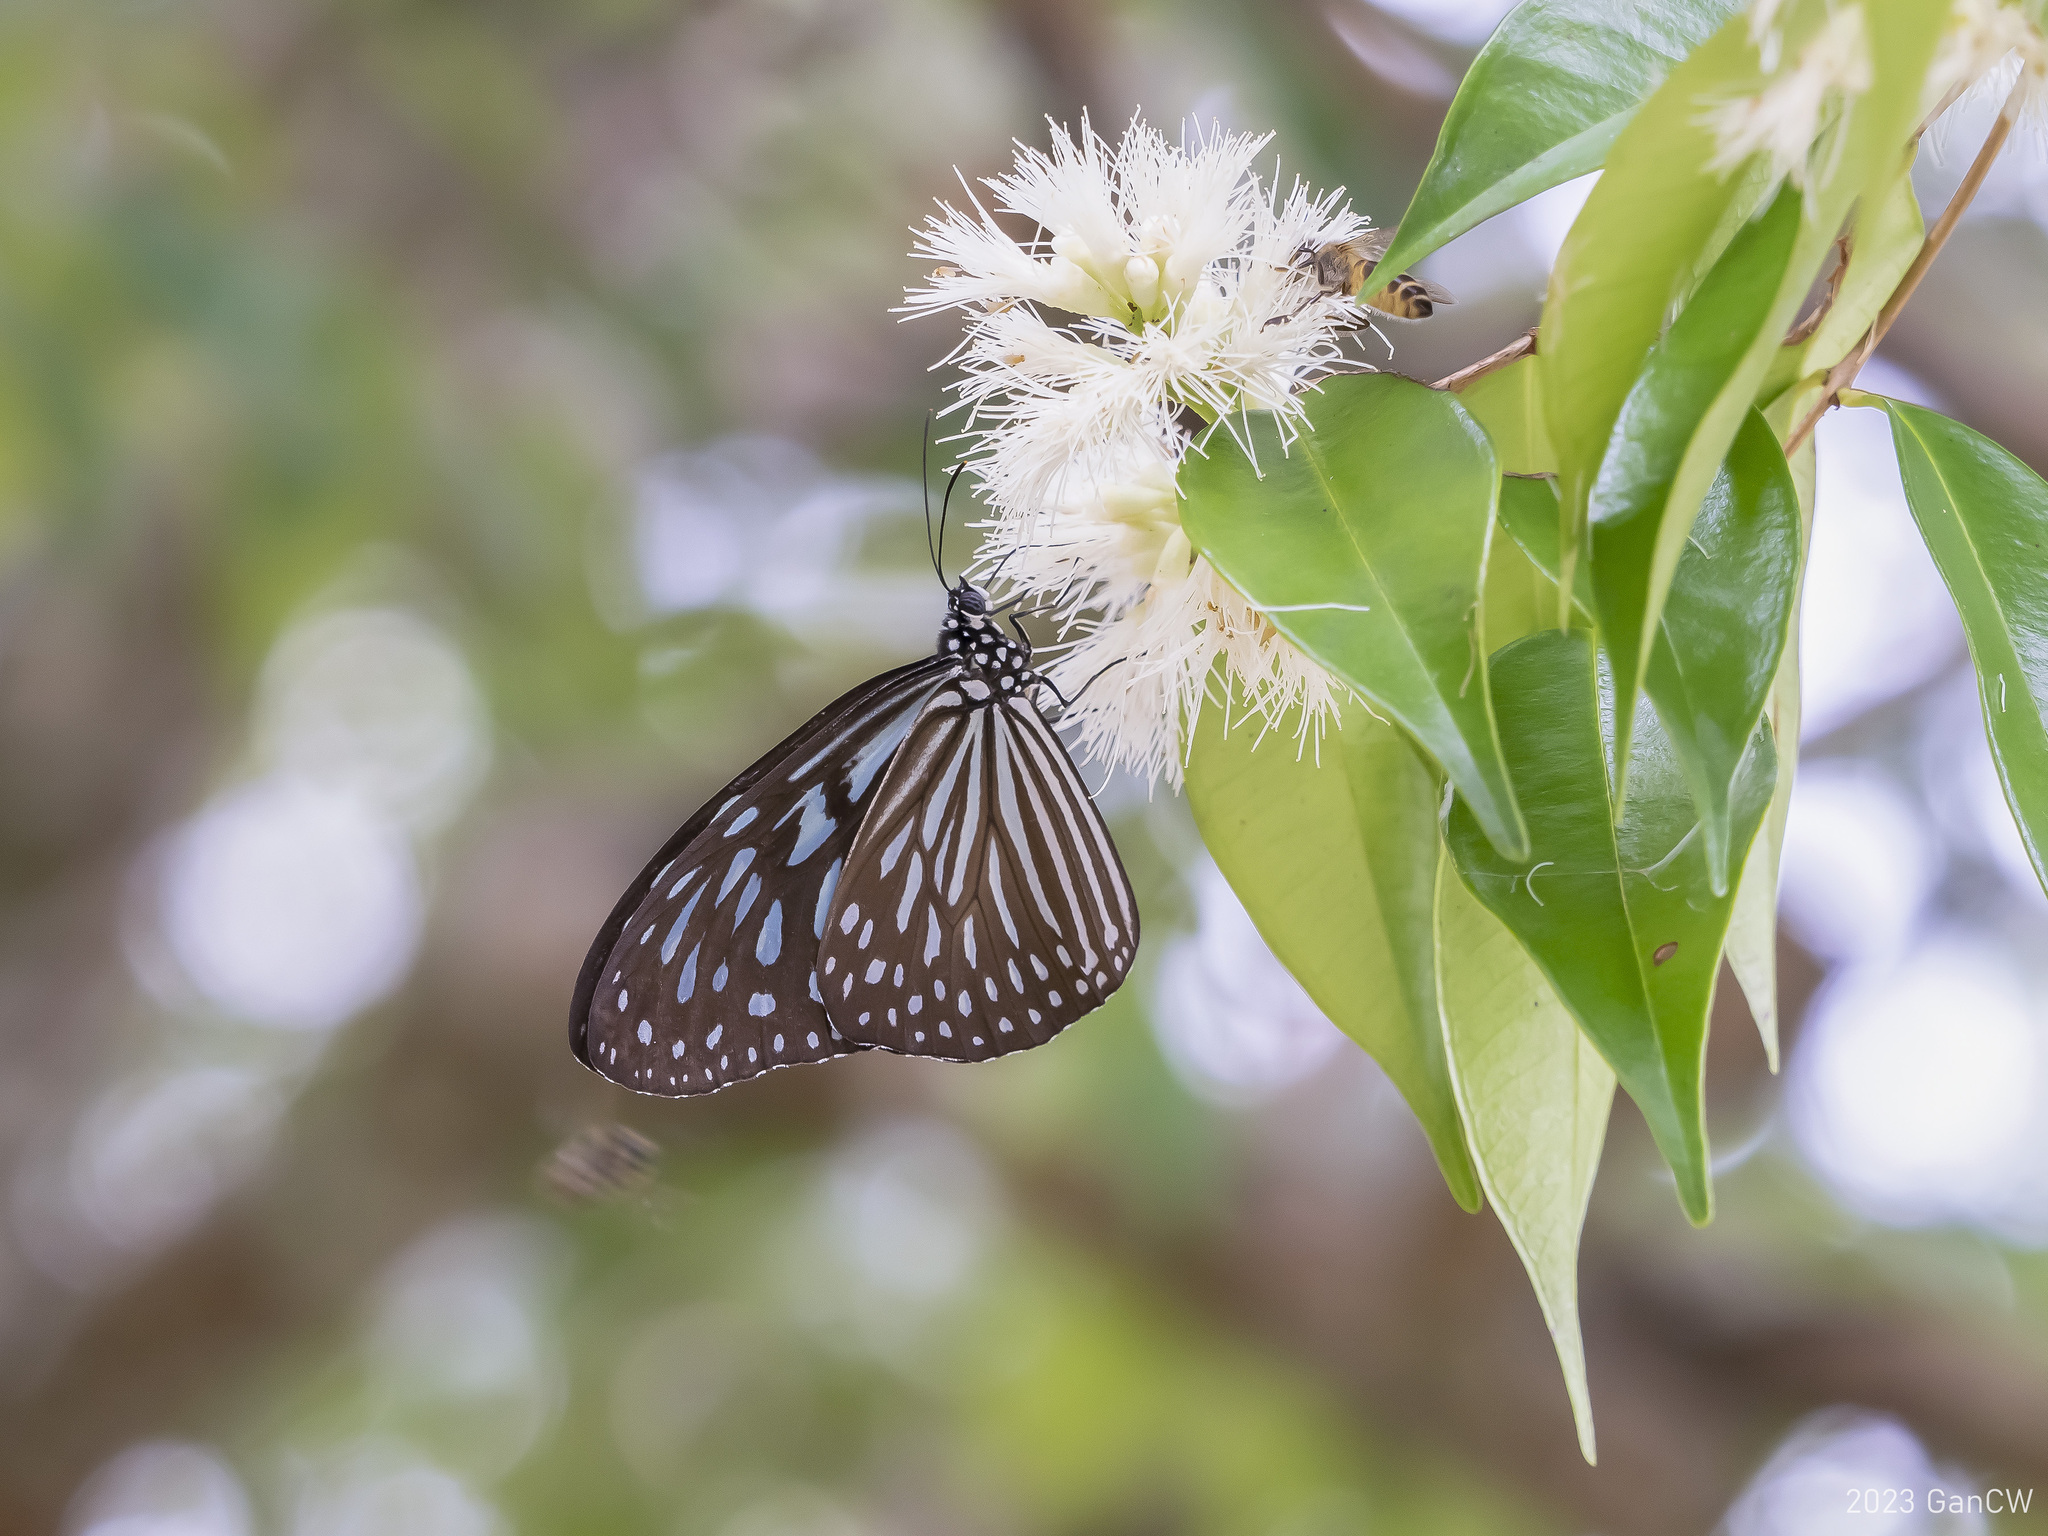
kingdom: Animalia
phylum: Arthropoda
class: Insecta
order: Lepidoptera
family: Nymphalidae
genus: Ideopsis
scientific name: Ideopsis vulgaris
